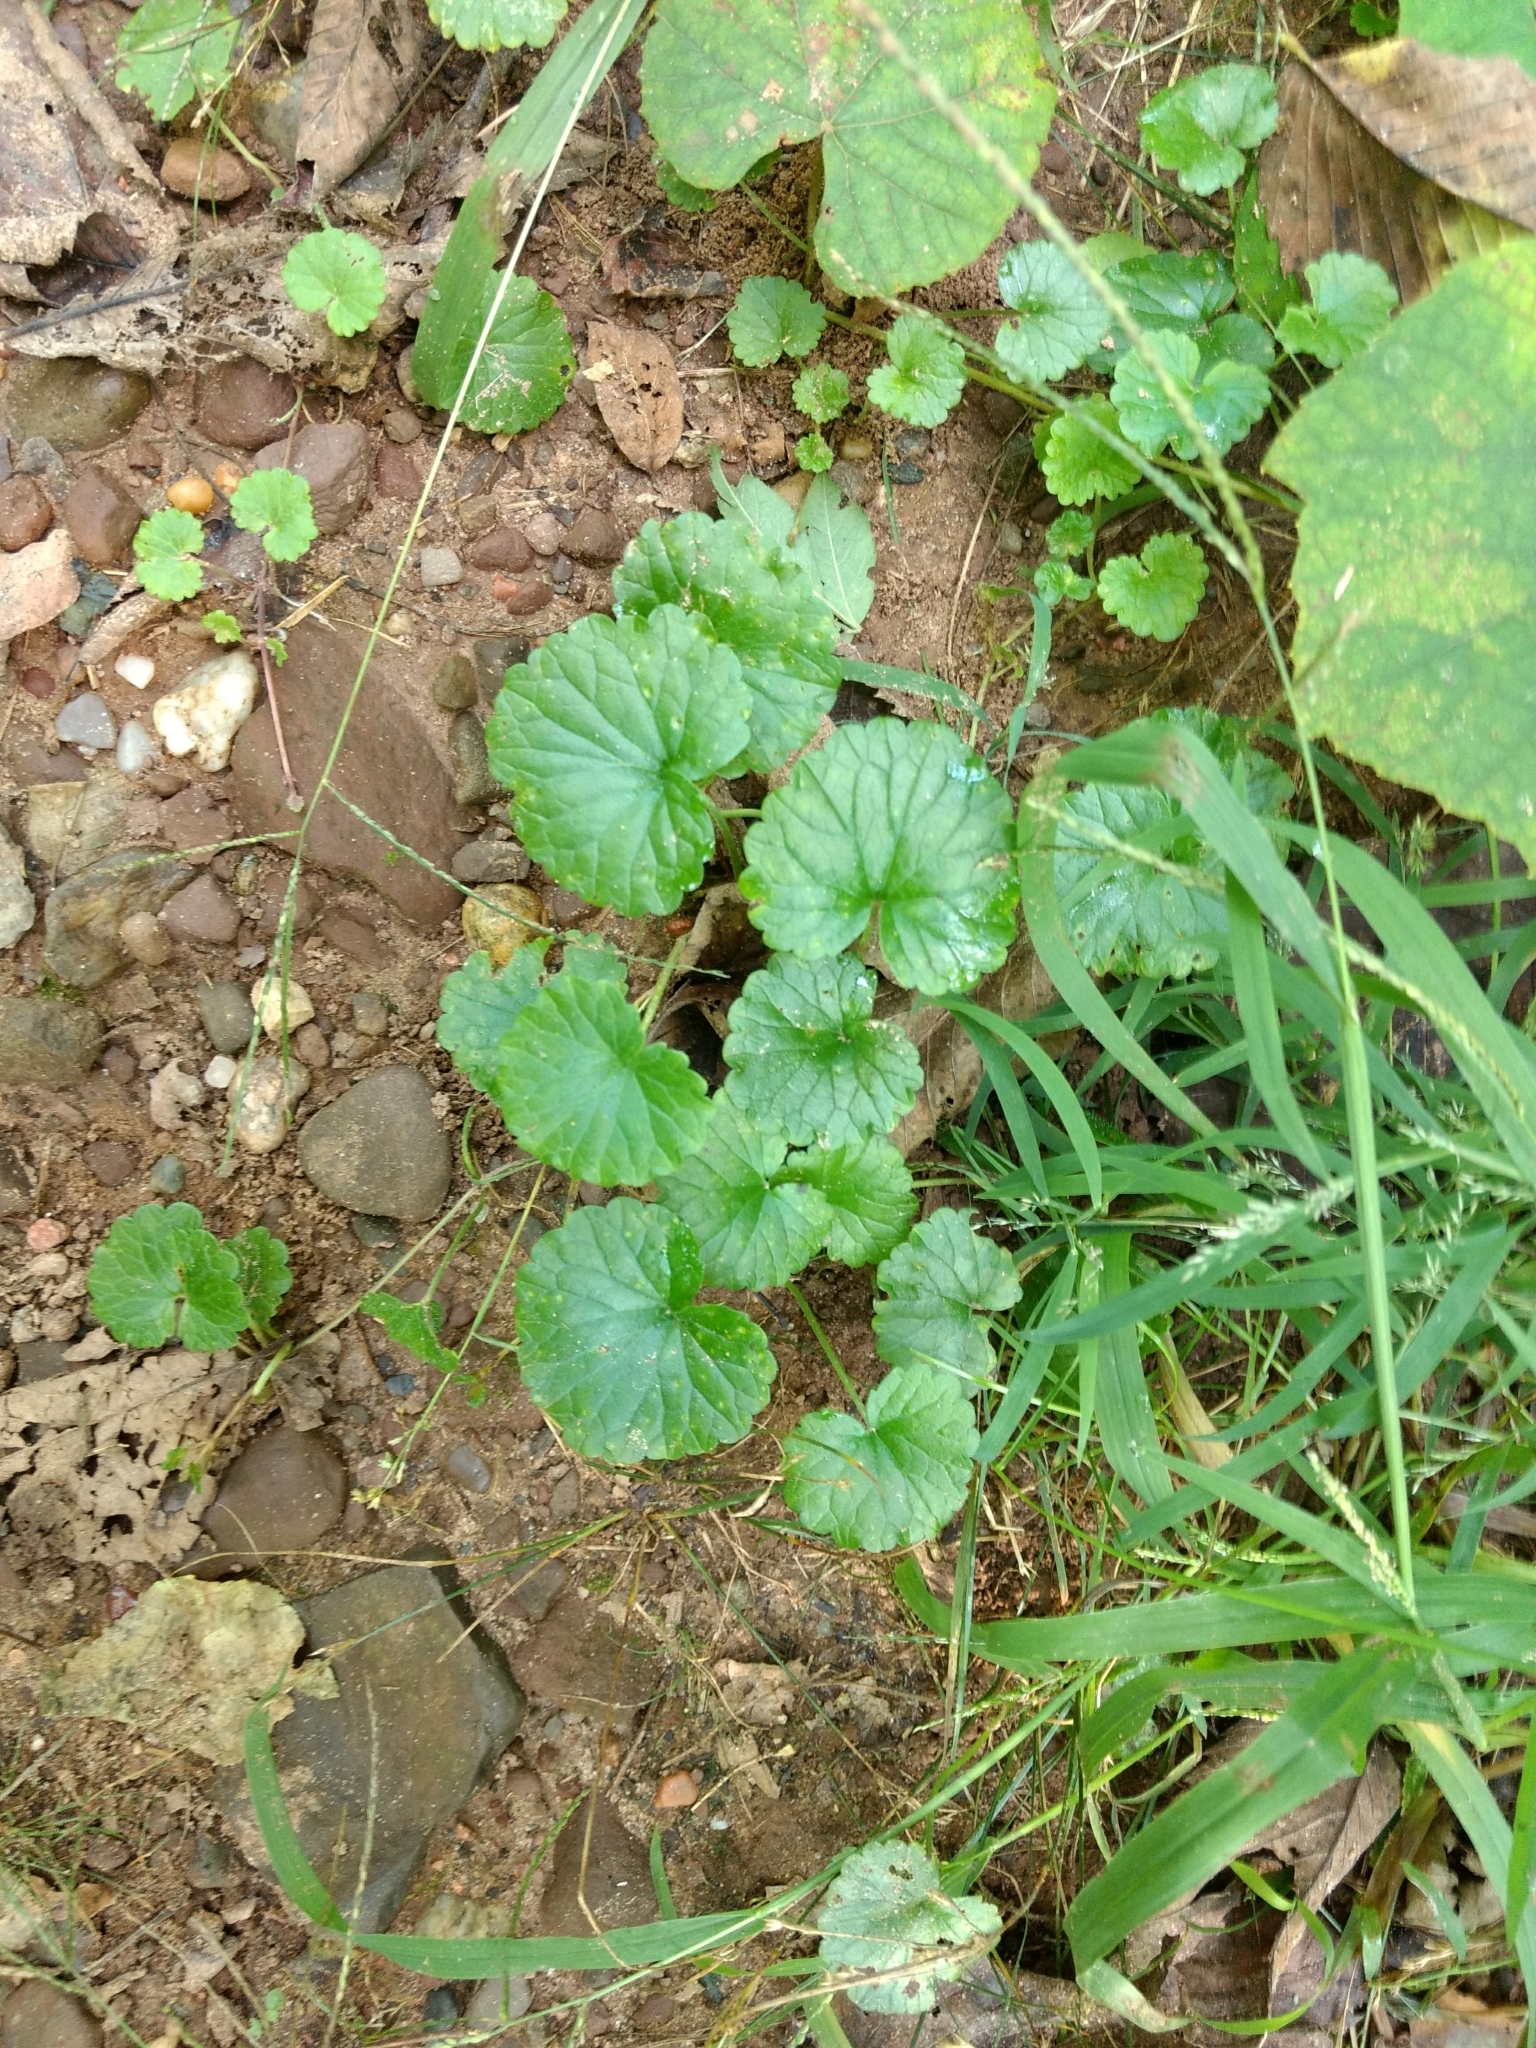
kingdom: Plantae
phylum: Tracheophyta
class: Magnoliopsida
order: Lamiales
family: Lamiaceae
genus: Glechoma
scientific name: Glechoma hederacea
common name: Ground ivy
